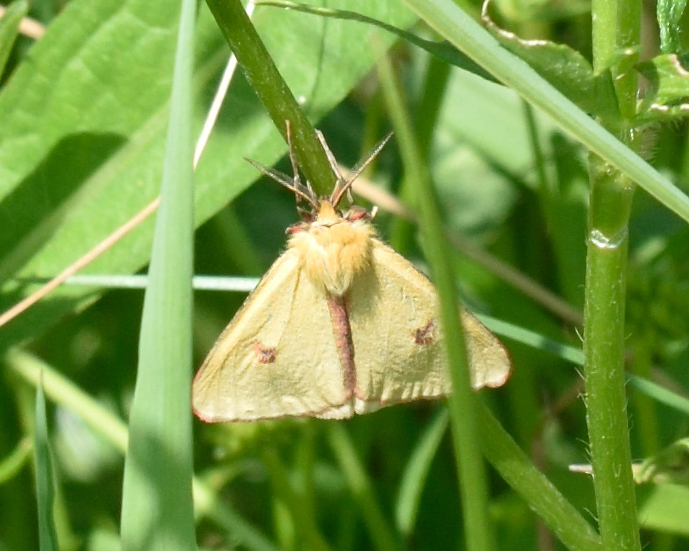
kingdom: Animalia
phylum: Arthropoda
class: Insecta
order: Lepidoptera
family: Erebidae
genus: Diacrisia
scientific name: Diacrisia sannio
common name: Clouded buff
